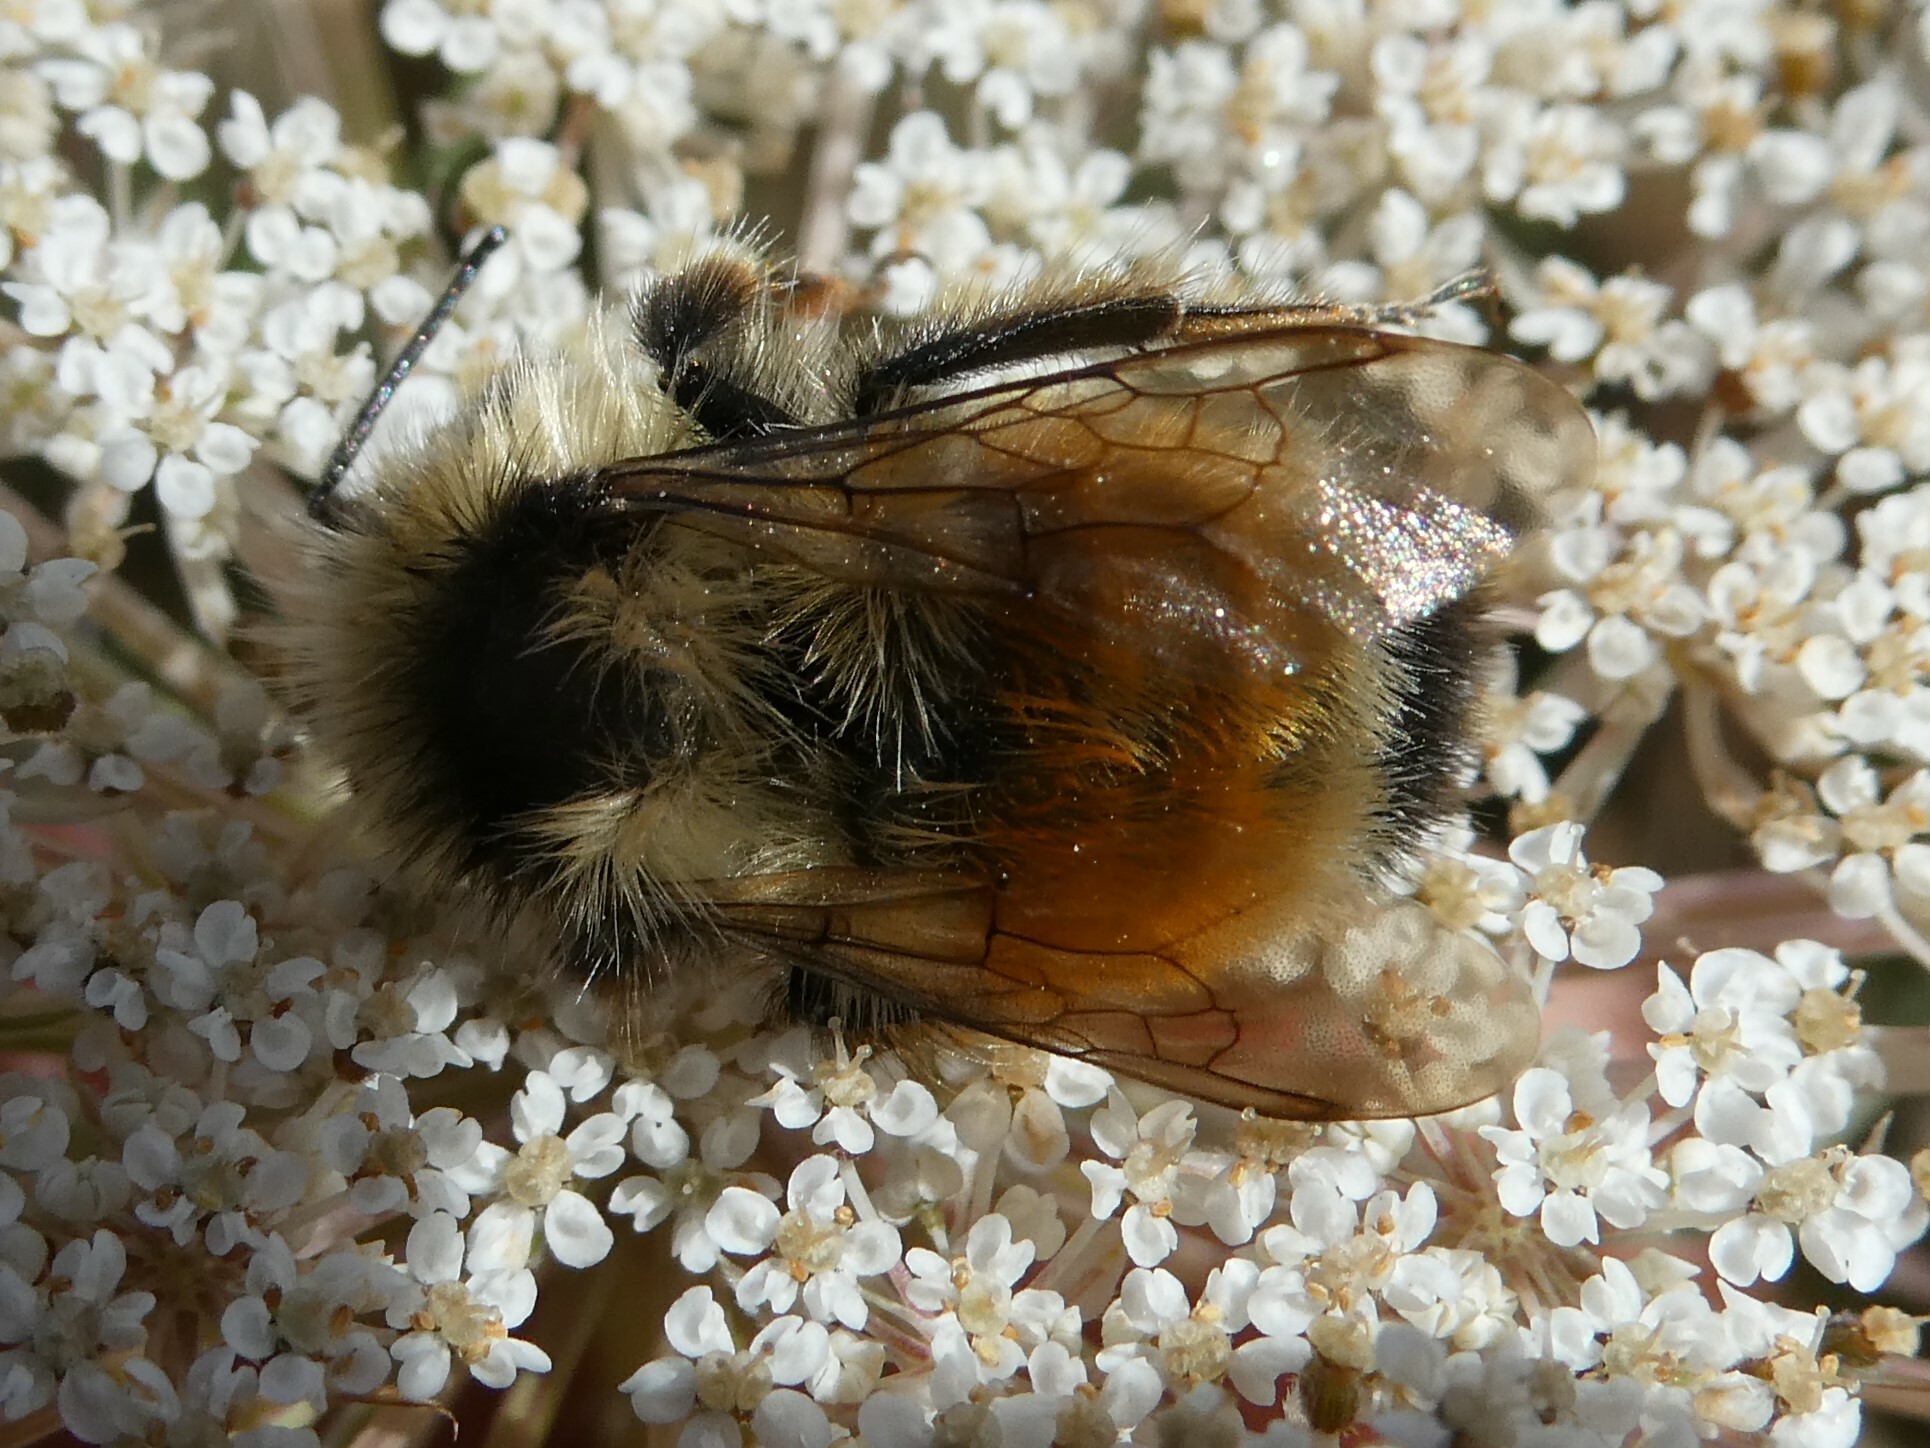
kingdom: Animalia
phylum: Arthropoda
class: Insecta
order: Hymenoptera
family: Apidae
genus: Bombus
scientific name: Bombus ternarius
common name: Tri-colored bumble bee
